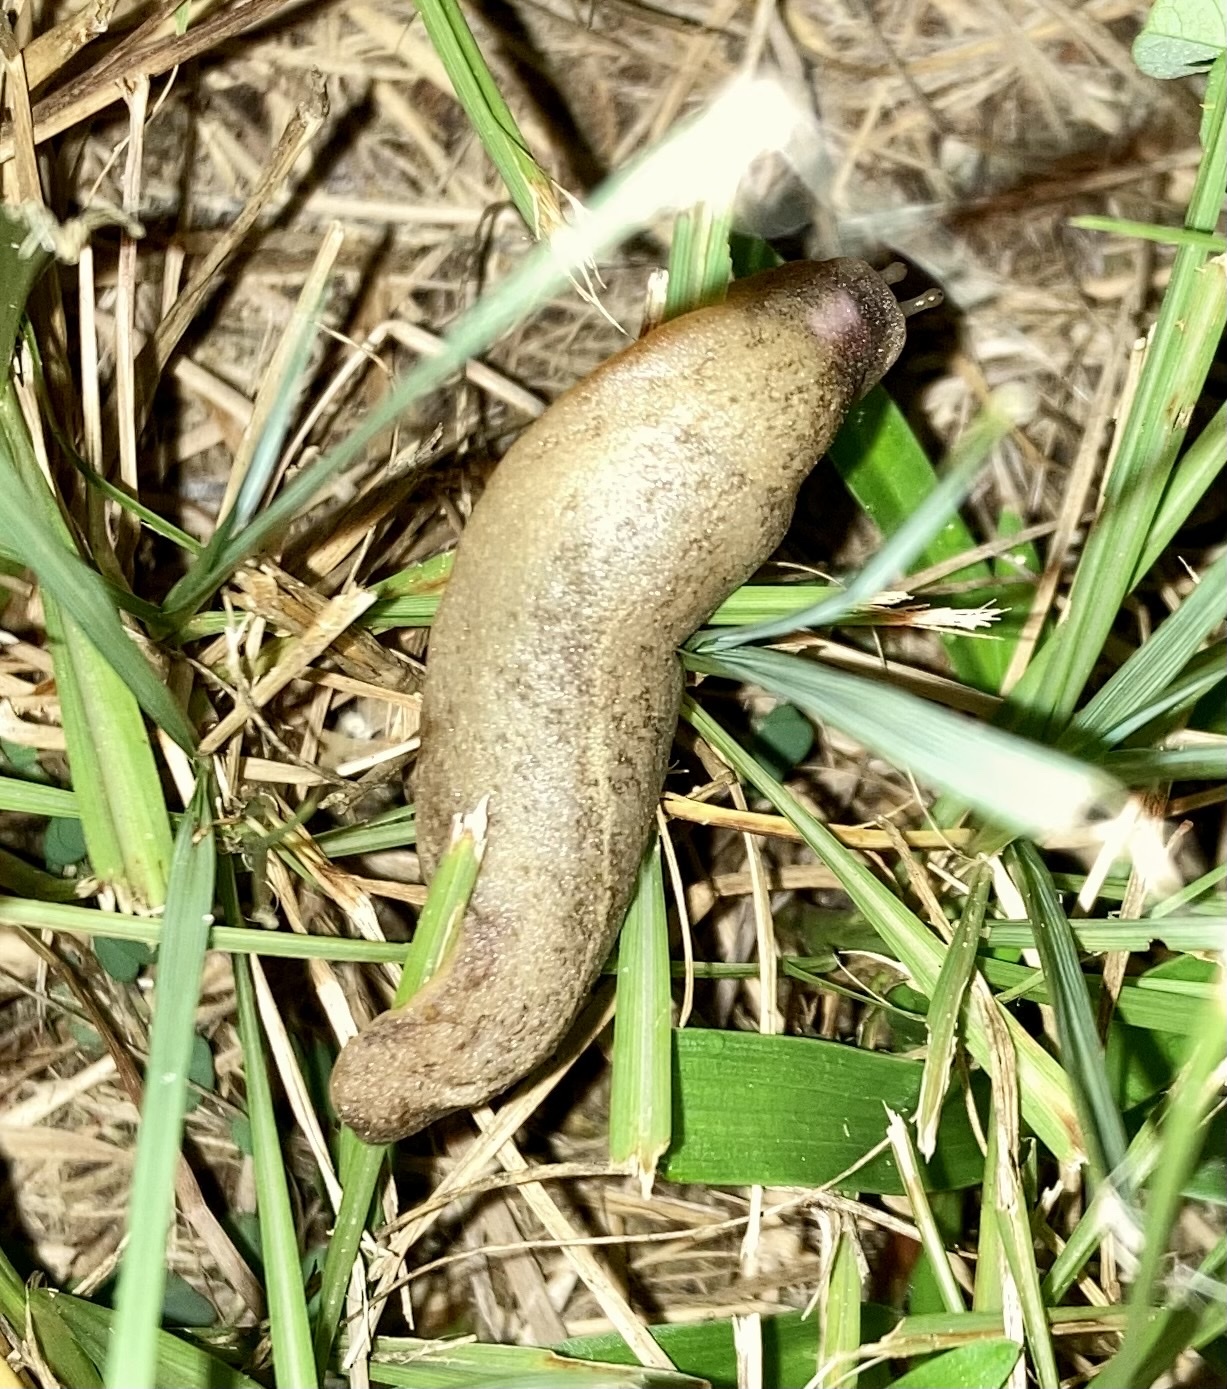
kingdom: Animalia
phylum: Mollusca
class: Gastropoda
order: Systellommatophora
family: Veronicellidae
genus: Leidyula
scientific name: Leidyula floridana
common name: Florida leatherleaf
